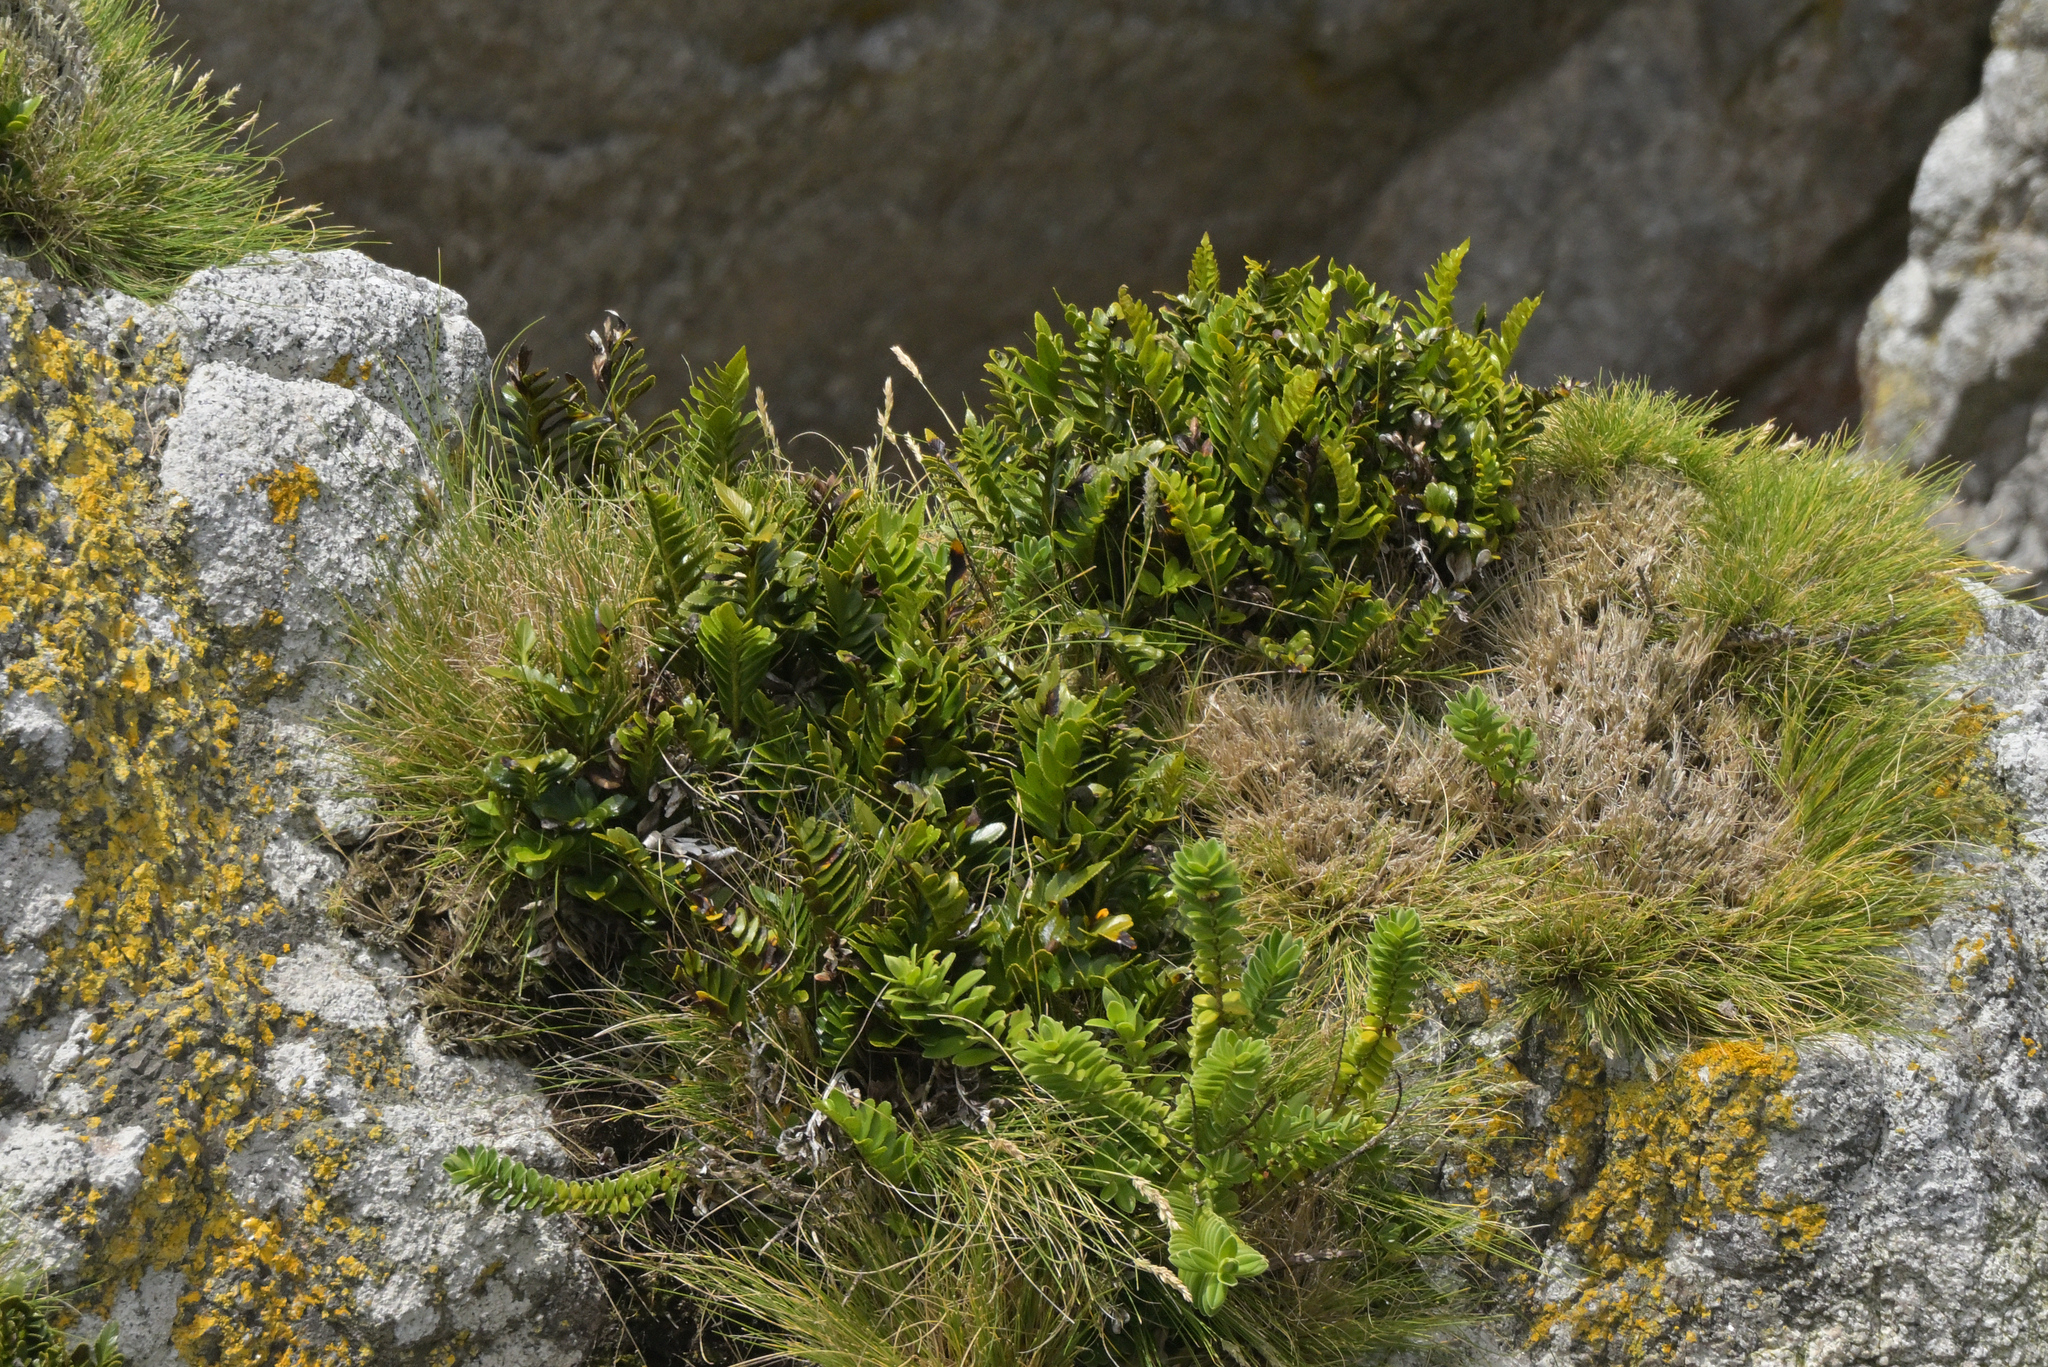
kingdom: Plantae
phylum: Tracheophyta
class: Polypodiopsida
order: Polypodiales
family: Aspleniaceae
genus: Asplenium
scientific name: Asplenium obtusatum
